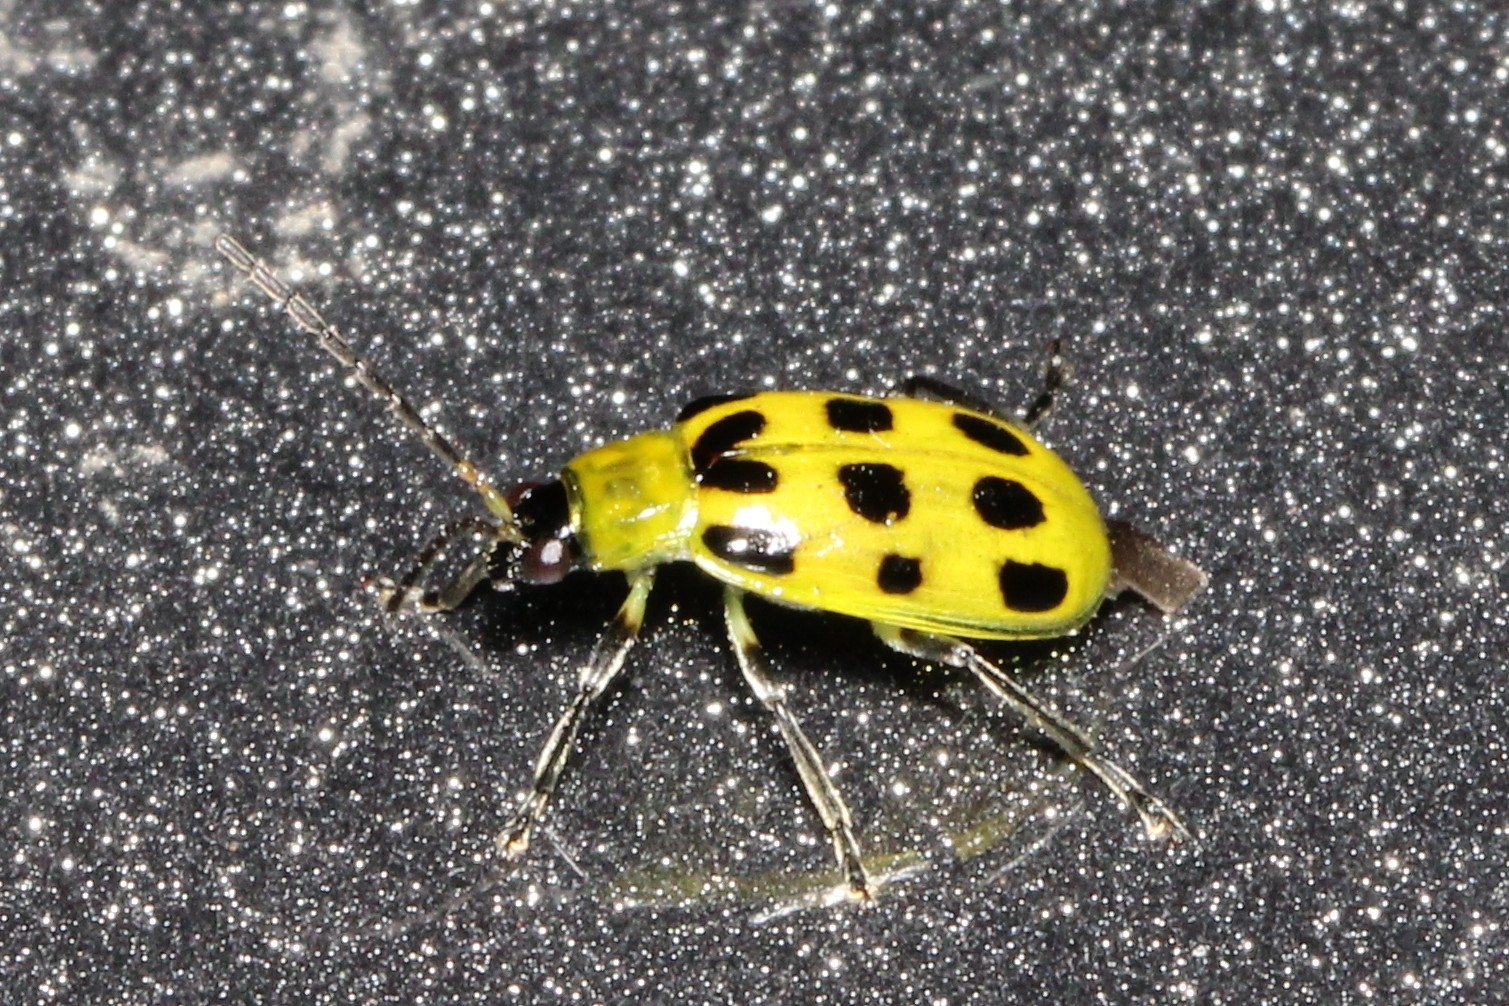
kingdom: Animalia
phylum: Arthropoda
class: Insecta
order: Coleoptera
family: Chrysomelidae
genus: Diabrotica
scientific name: Diabrotica undecimpunctata
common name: Spotted cucumber beetle
